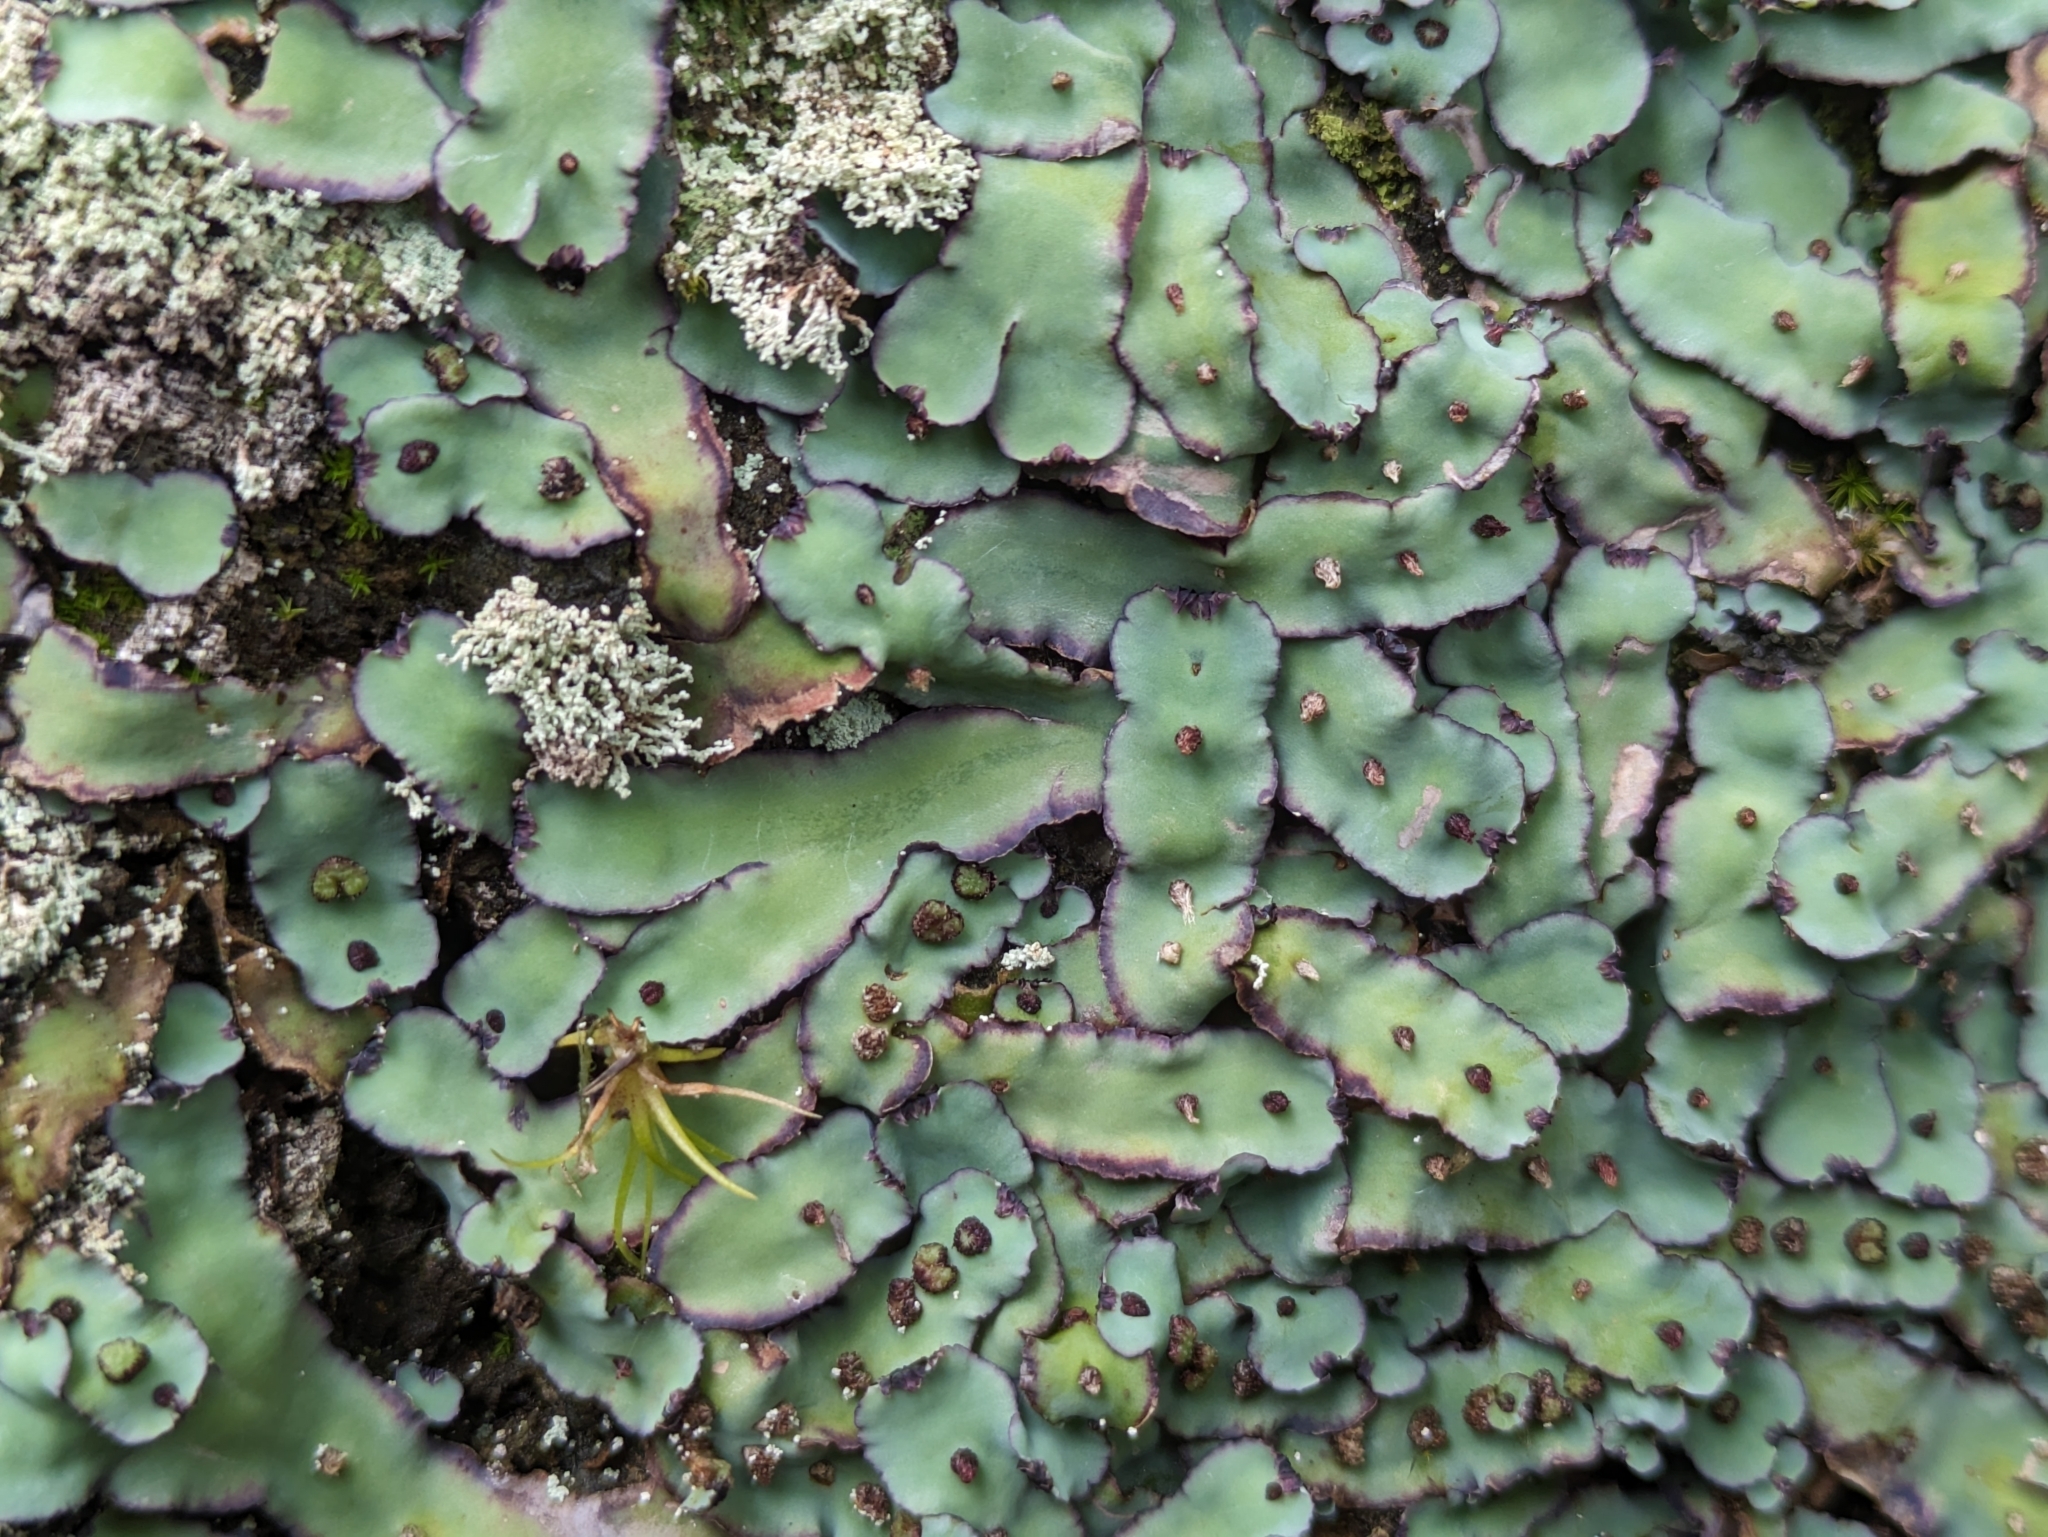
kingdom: Plantae
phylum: Marchantiophyta
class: Marchantiopsida
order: Marchantiales
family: Aytoniaceae
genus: Plagiochasma
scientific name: Plagiochasma rupestre
